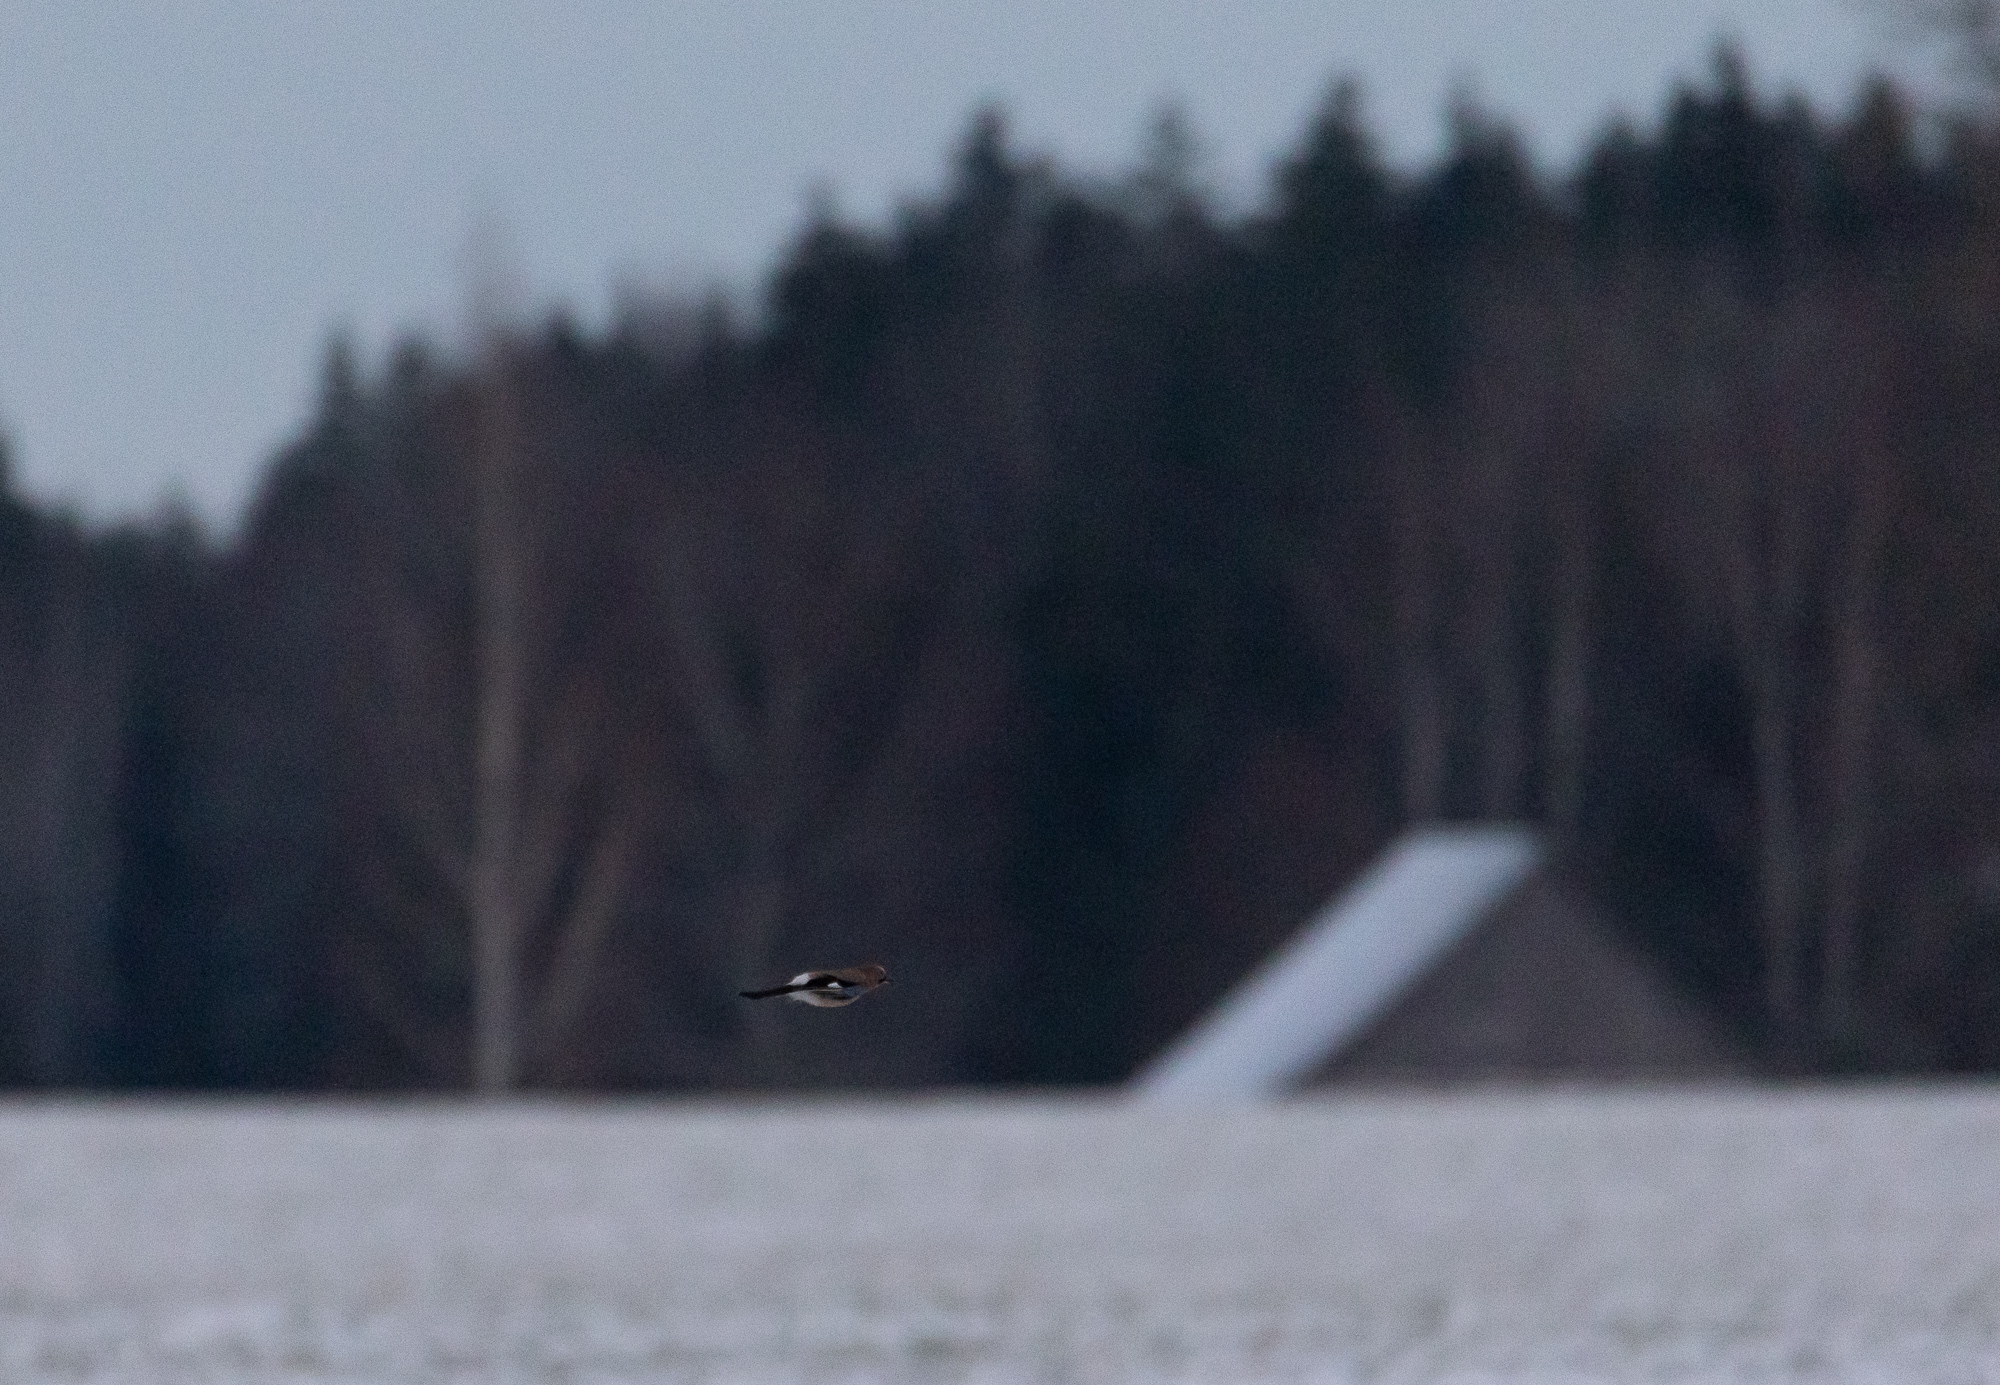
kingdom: Animalia
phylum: Chordata
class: Aves
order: Passeriformes
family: Corvidae
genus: Garrulus
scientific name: Garrulus glandarius
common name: Eurasian jay
